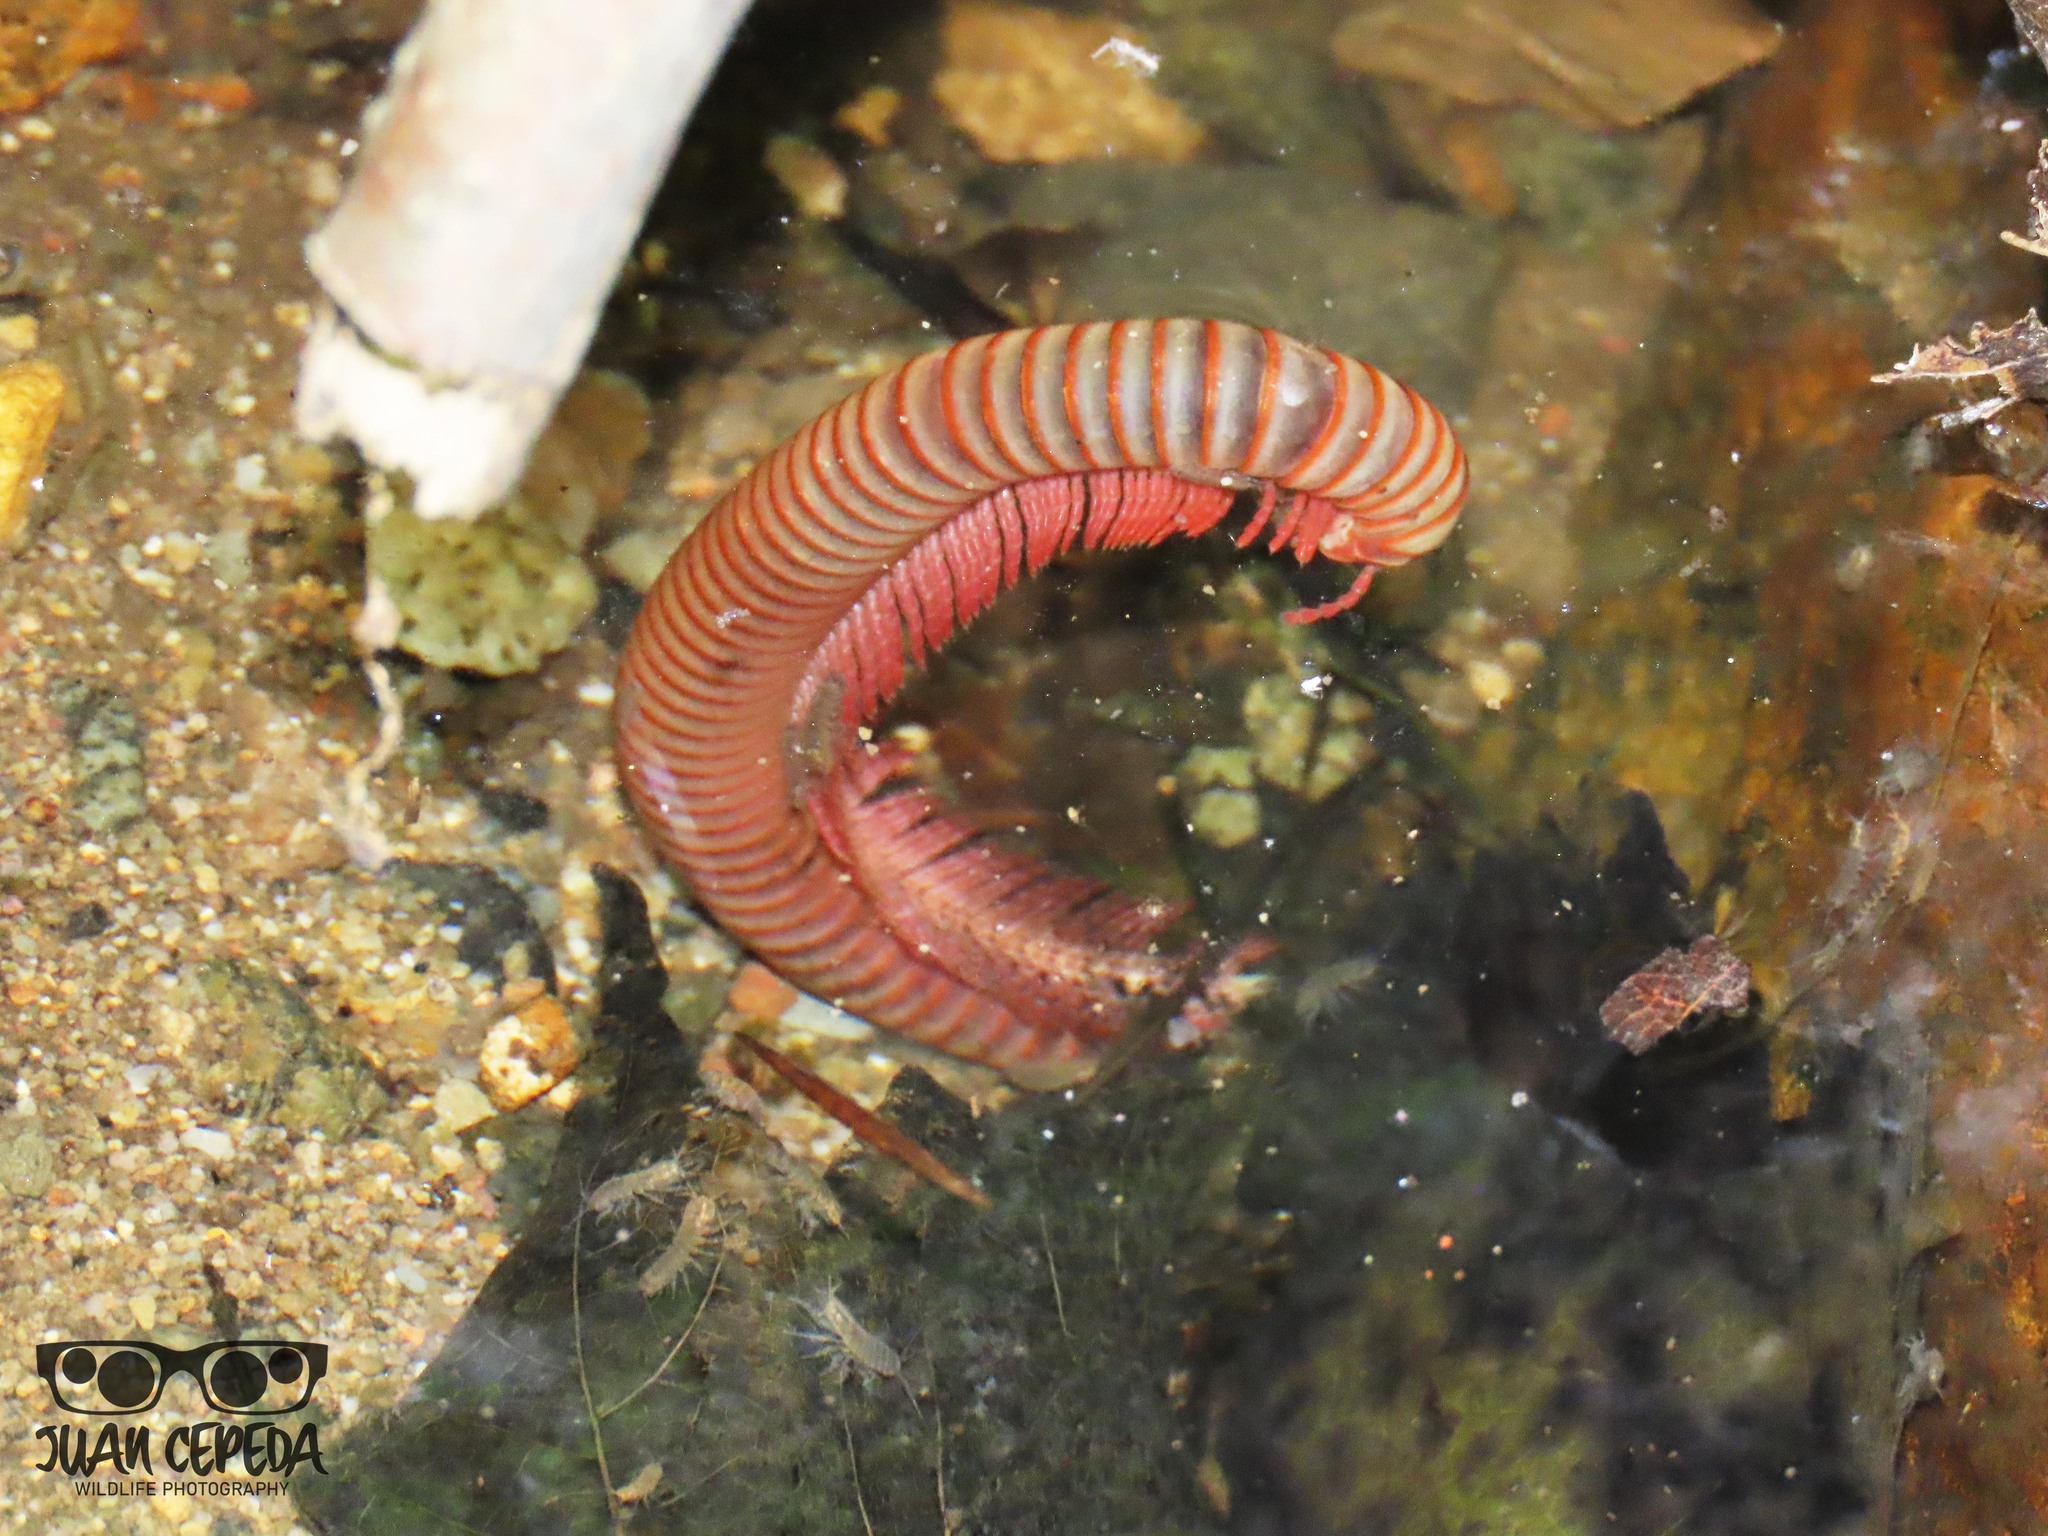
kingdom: Animalia
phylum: Arthropoda
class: Diplopoda
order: Spirobolida
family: Spirobolidae
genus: Narceus
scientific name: Narceus
